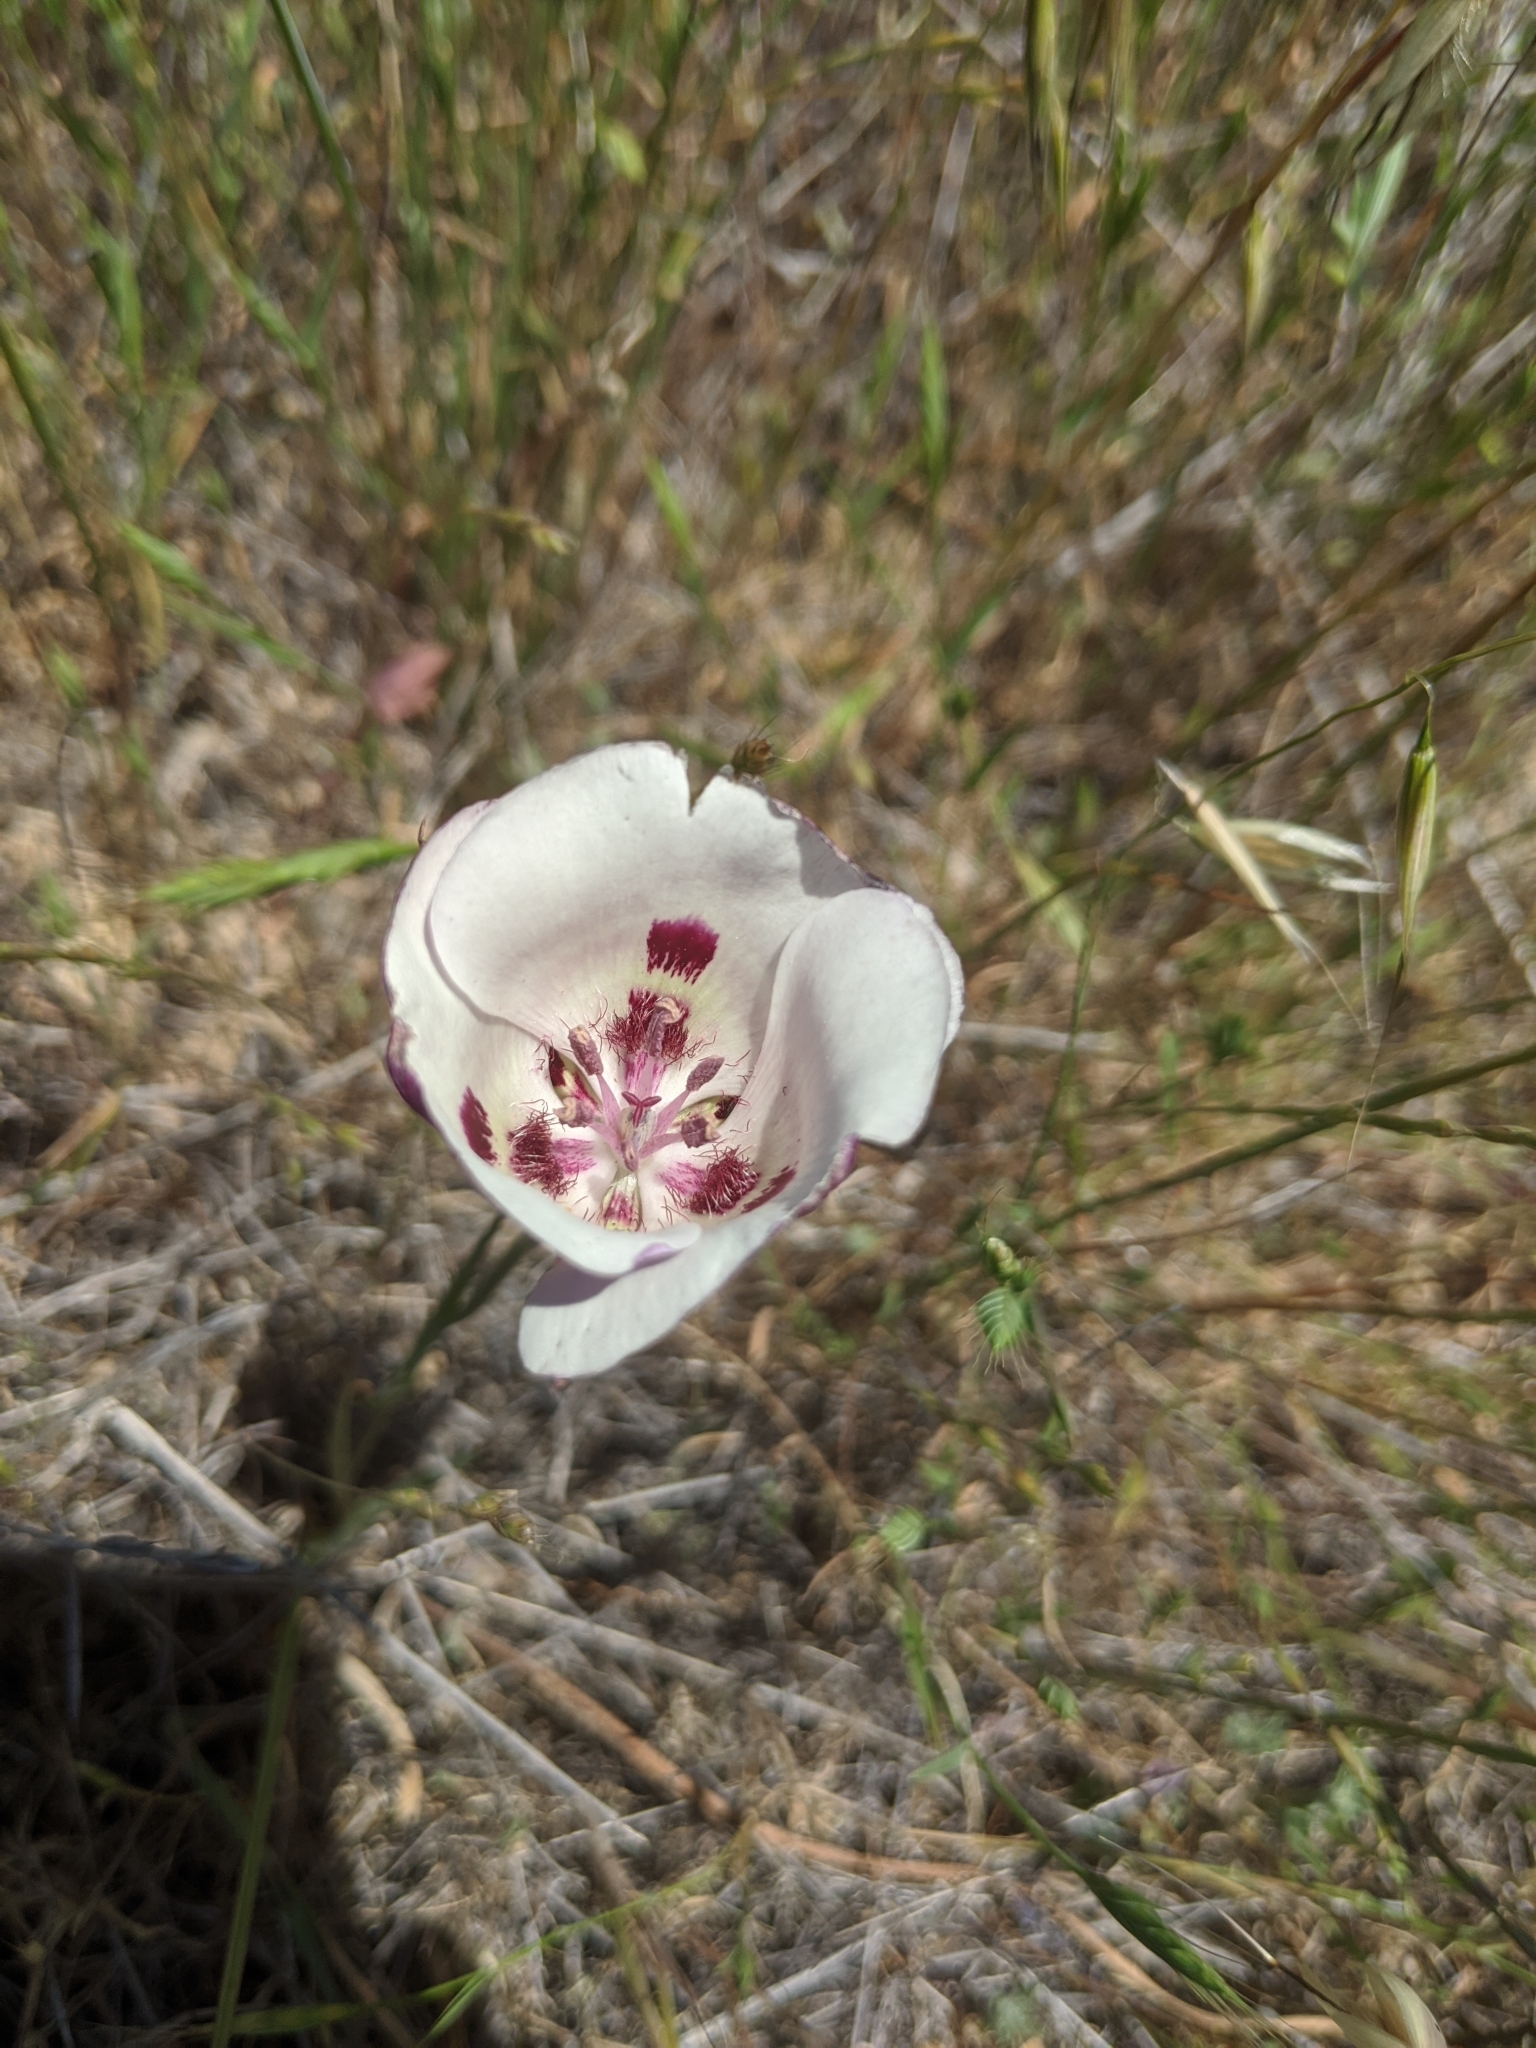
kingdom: Plantae
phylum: Tracheophyta
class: Liliopsida
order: Liliales
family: Liliaceae
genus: Calochortus
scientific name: Calochortus argillosus
